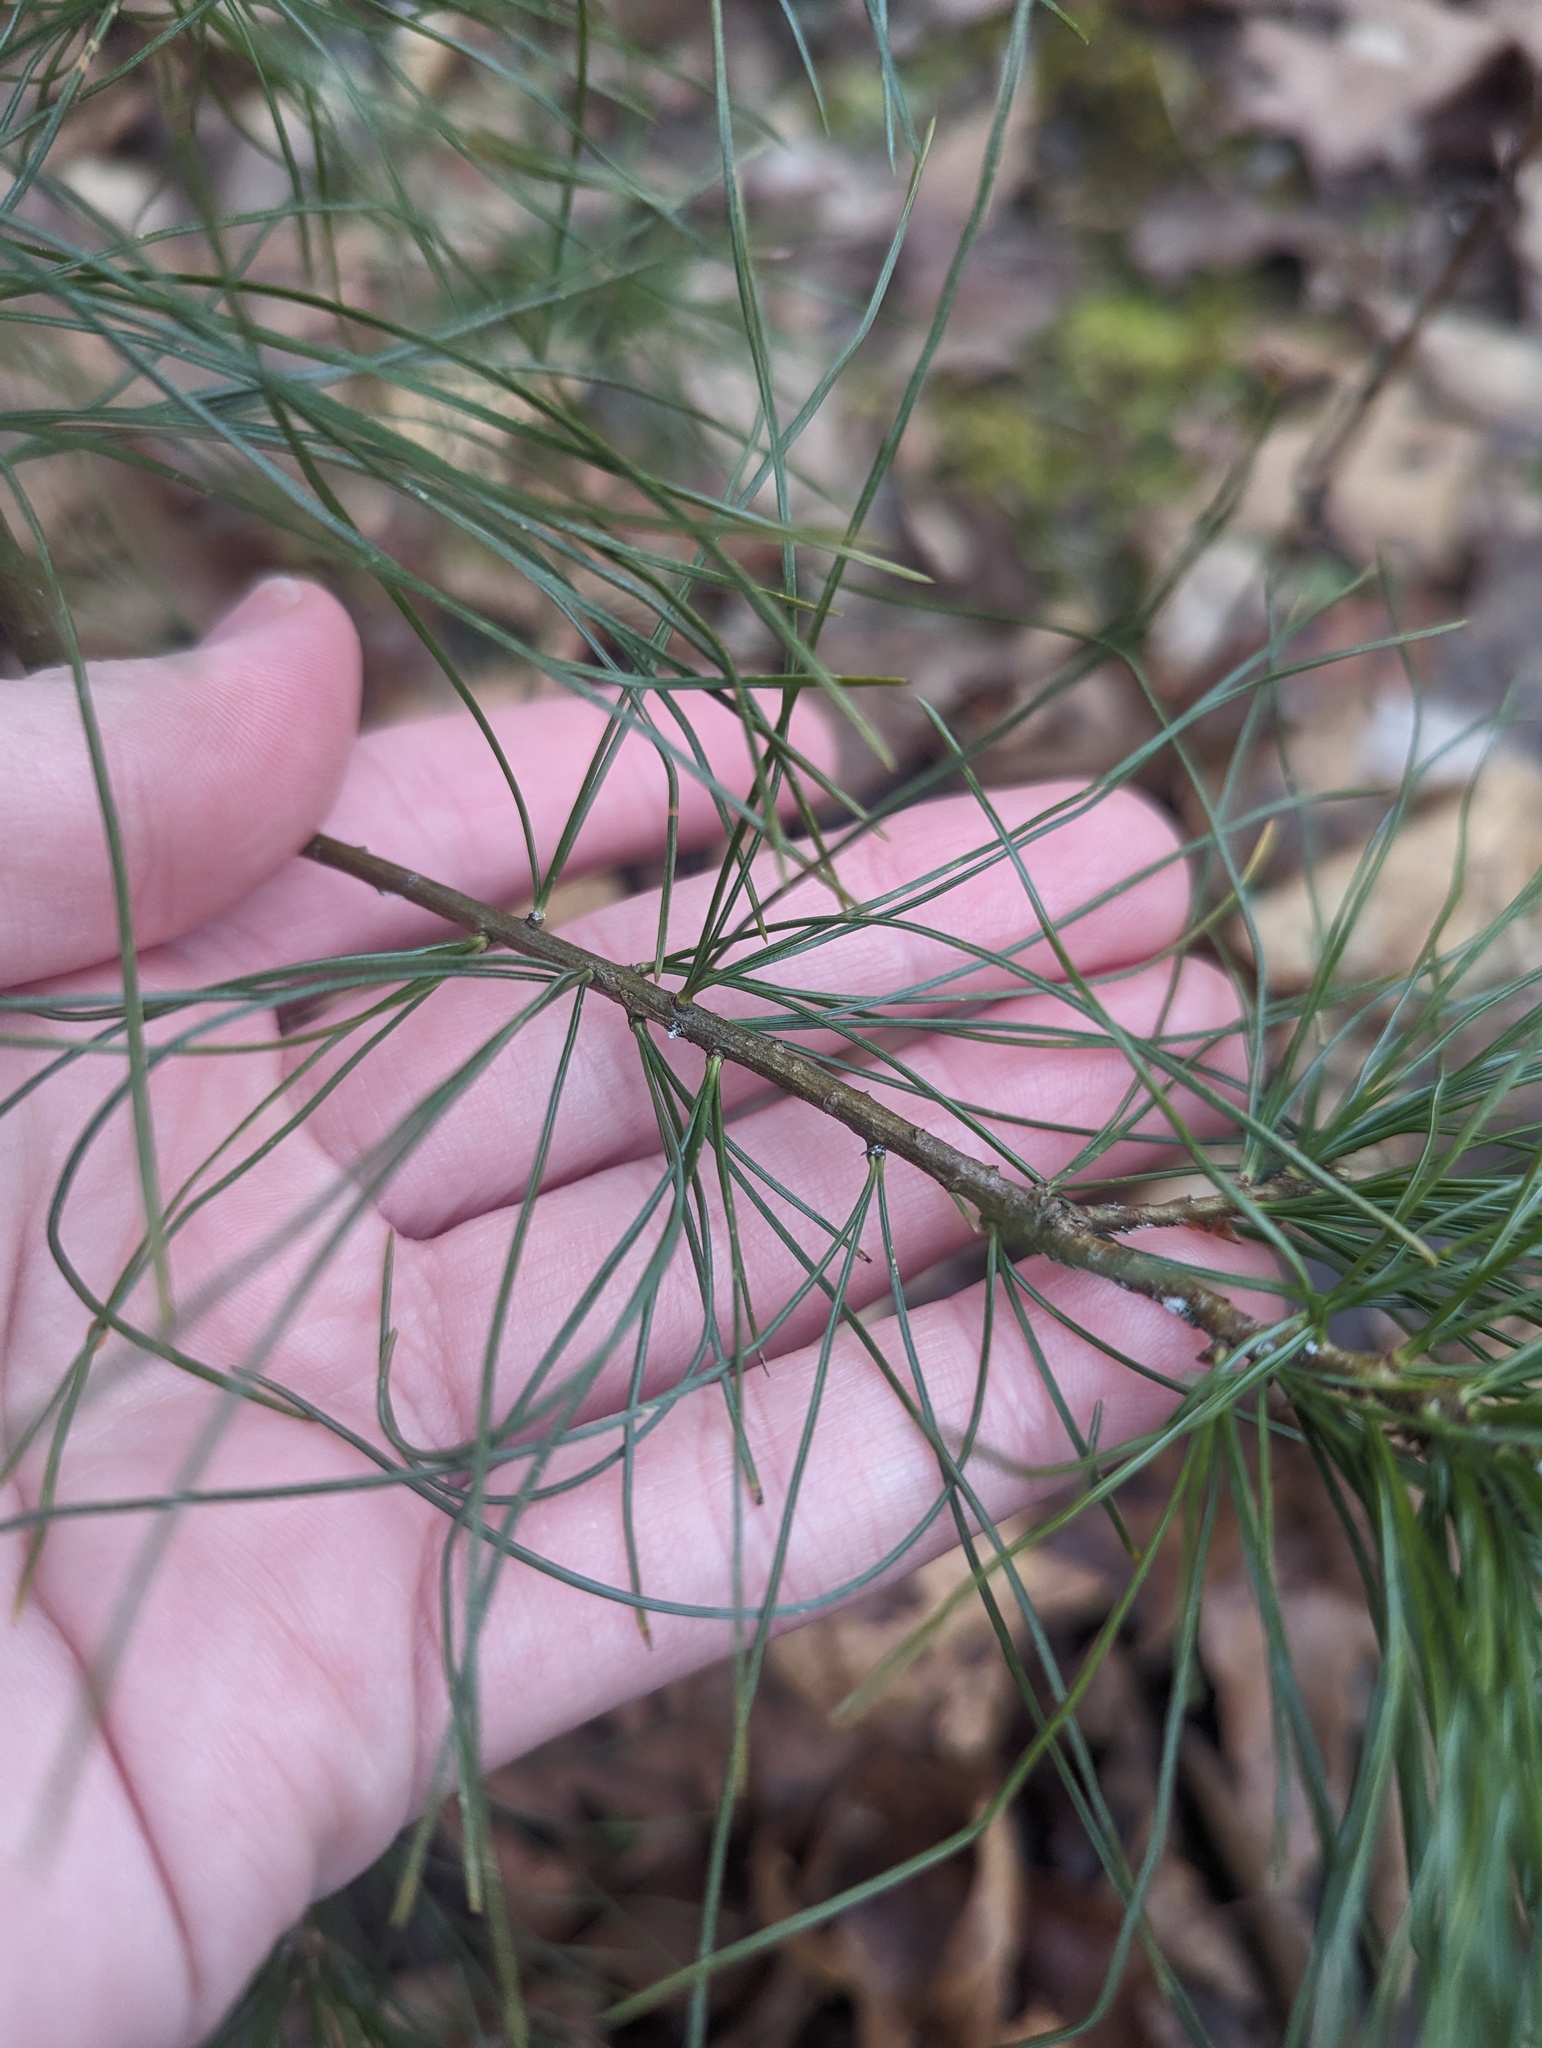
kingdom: Plantae
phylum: Tracheophyta
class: Pinopsida
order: Pinales
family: Pinaceae
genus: Pinus
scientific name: Pinus strobus
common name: Weymouth pine
